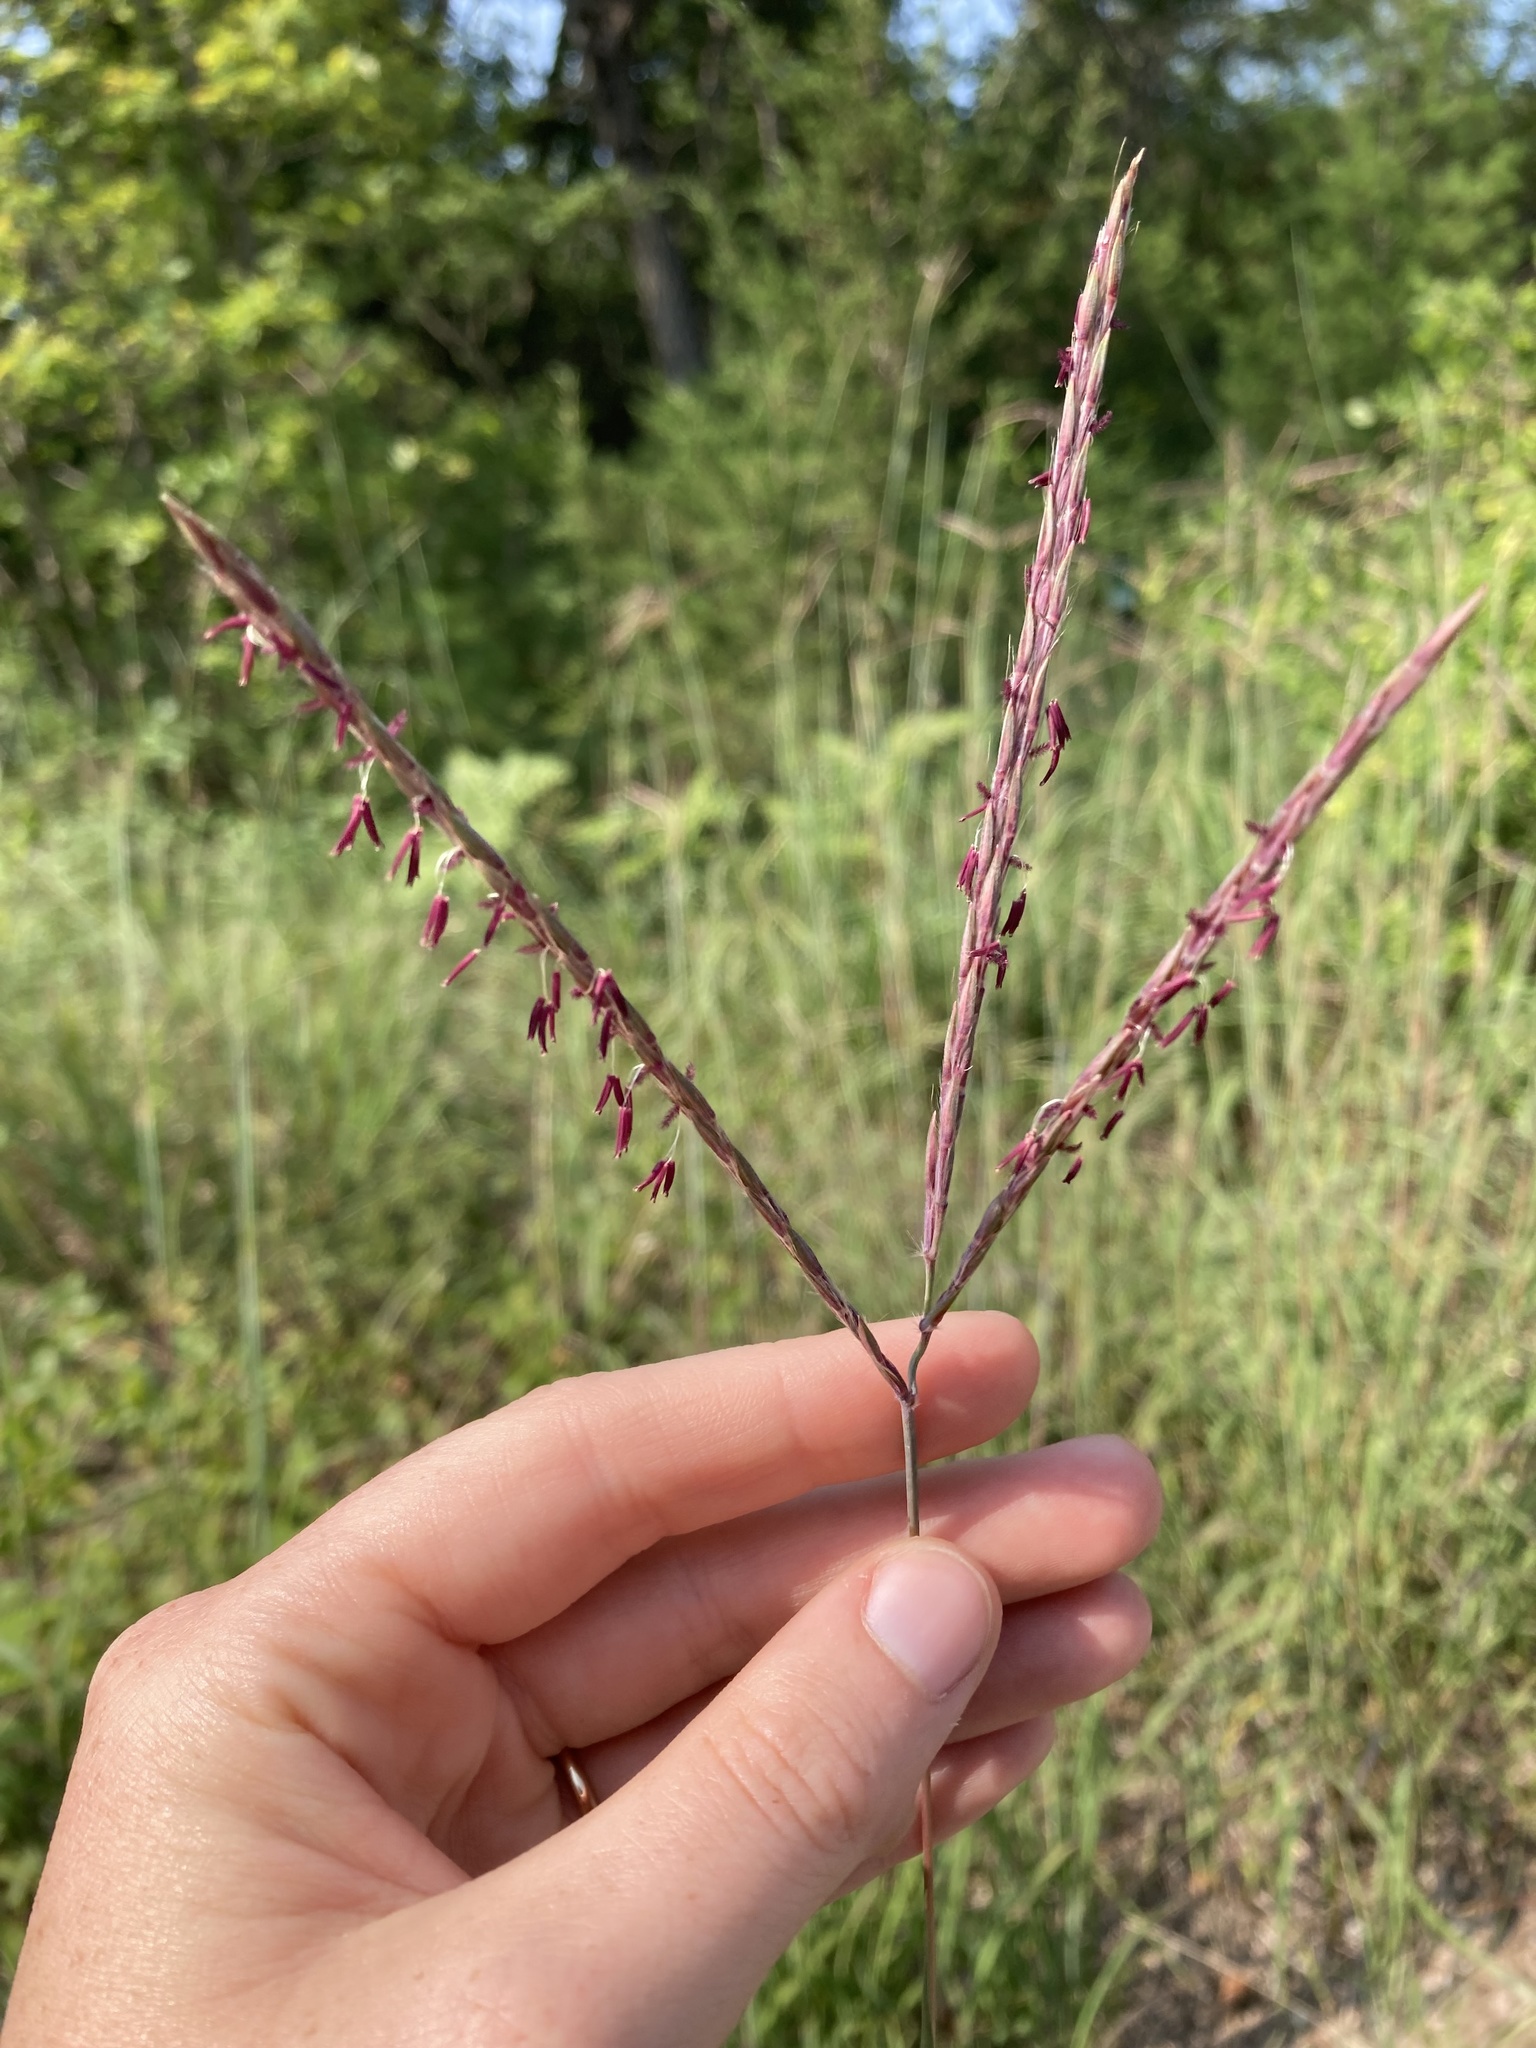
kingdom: Plantae
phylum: Tracheophyta
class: Liliopsida
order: Poales
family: Poaceae
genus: Andropogon
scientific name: Andropogon gerardi
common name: Big bluestem
